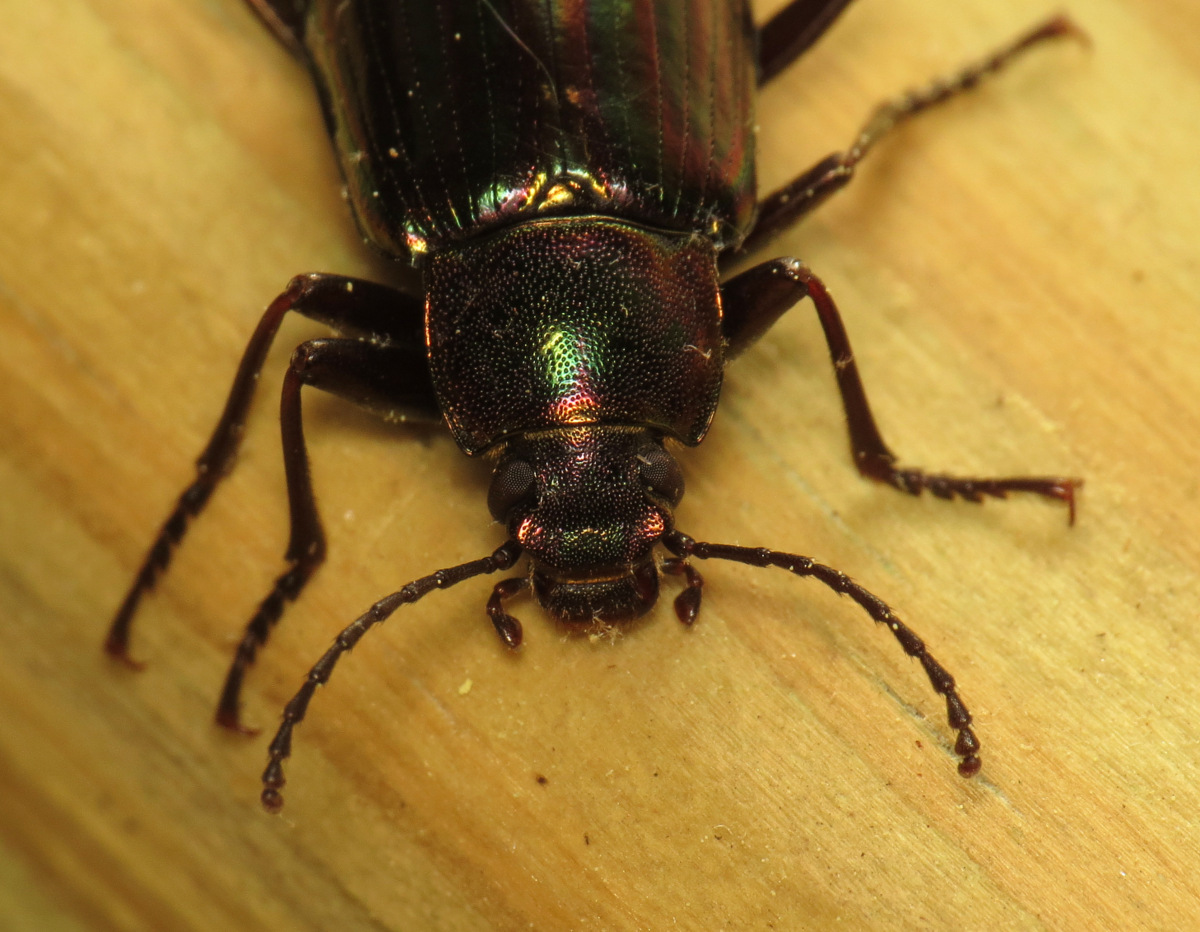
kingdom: Animalia
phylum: Arthropoda
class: Insecta
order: Coleoptera
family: Tenebrionidae
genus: Tarpela
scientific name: Tarpela micans
